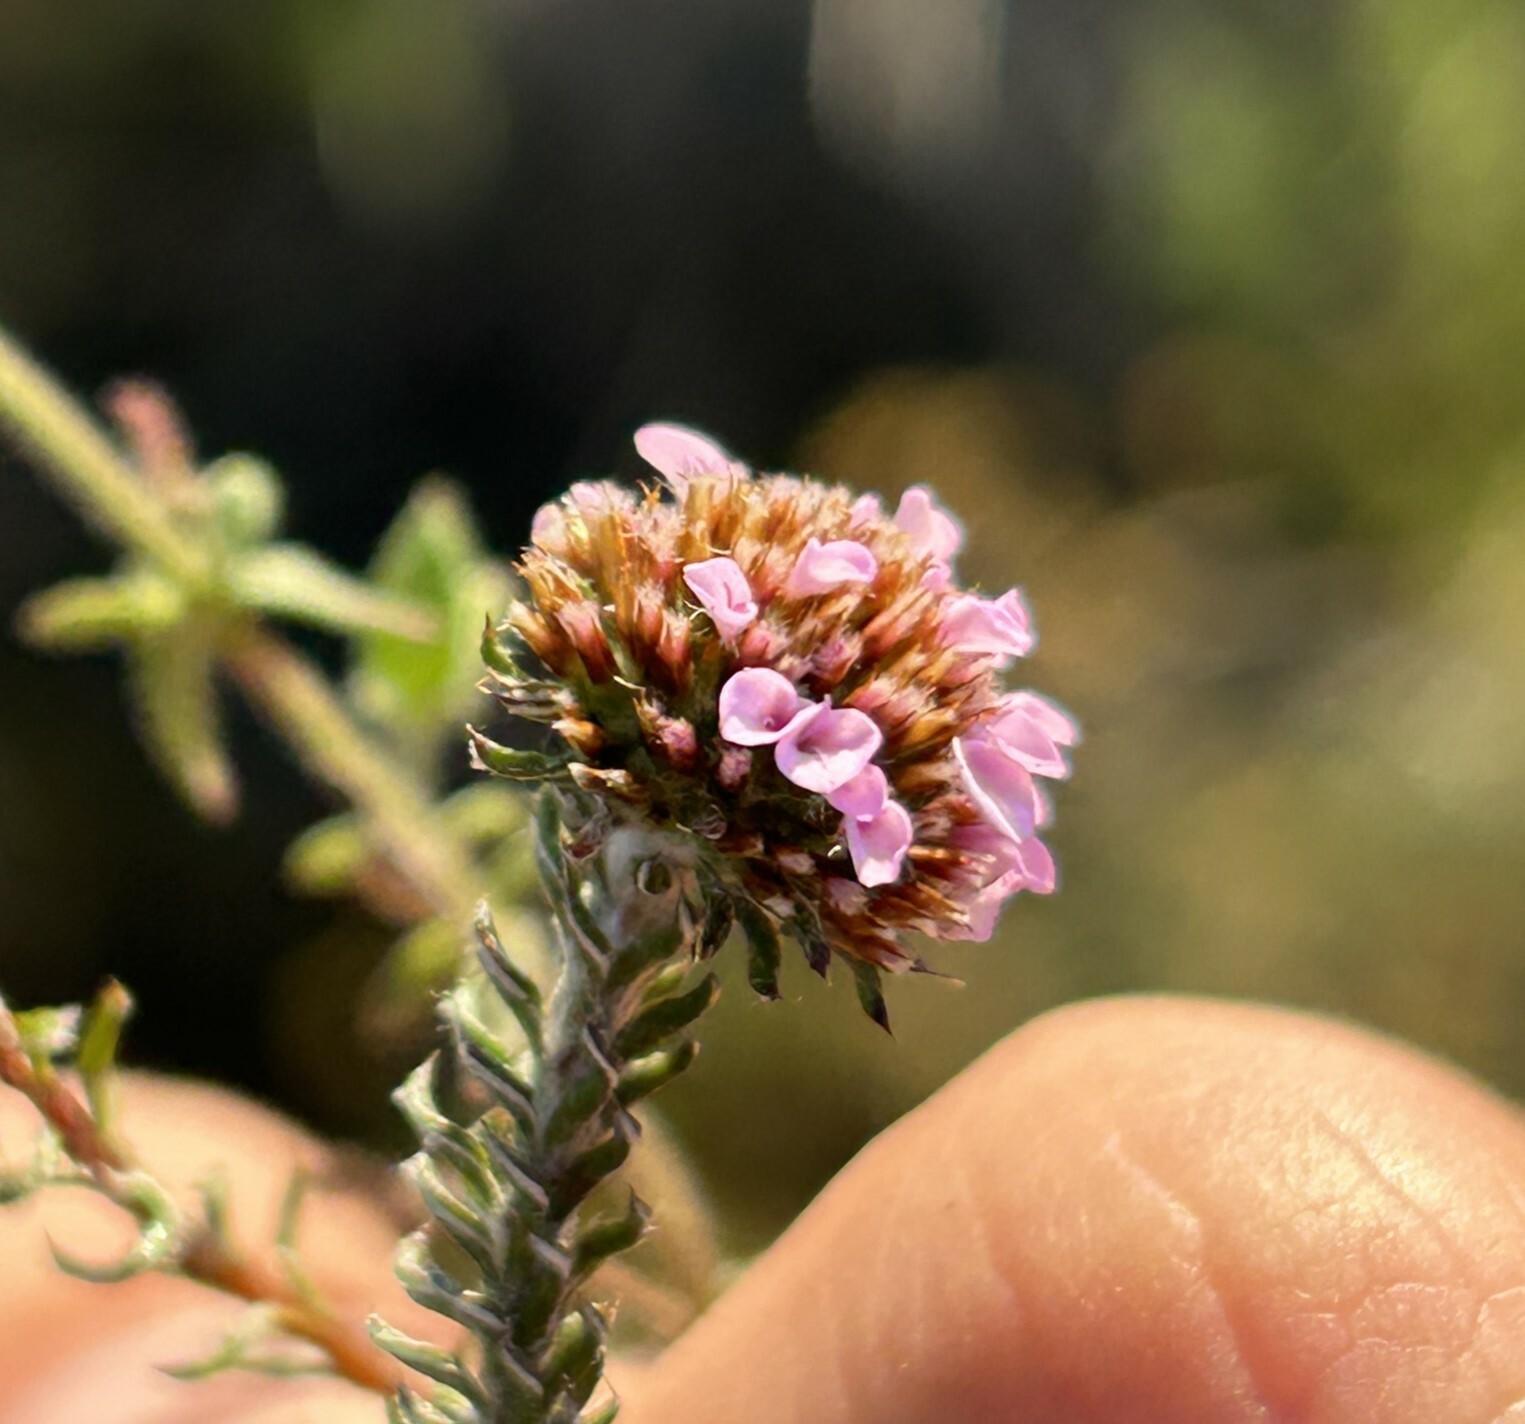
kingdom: Plantae
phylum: Tracheophyta
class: Magnoliopsida
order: Asterales
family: Asteraceae
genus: Disparago
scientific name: Disparago tortilis
